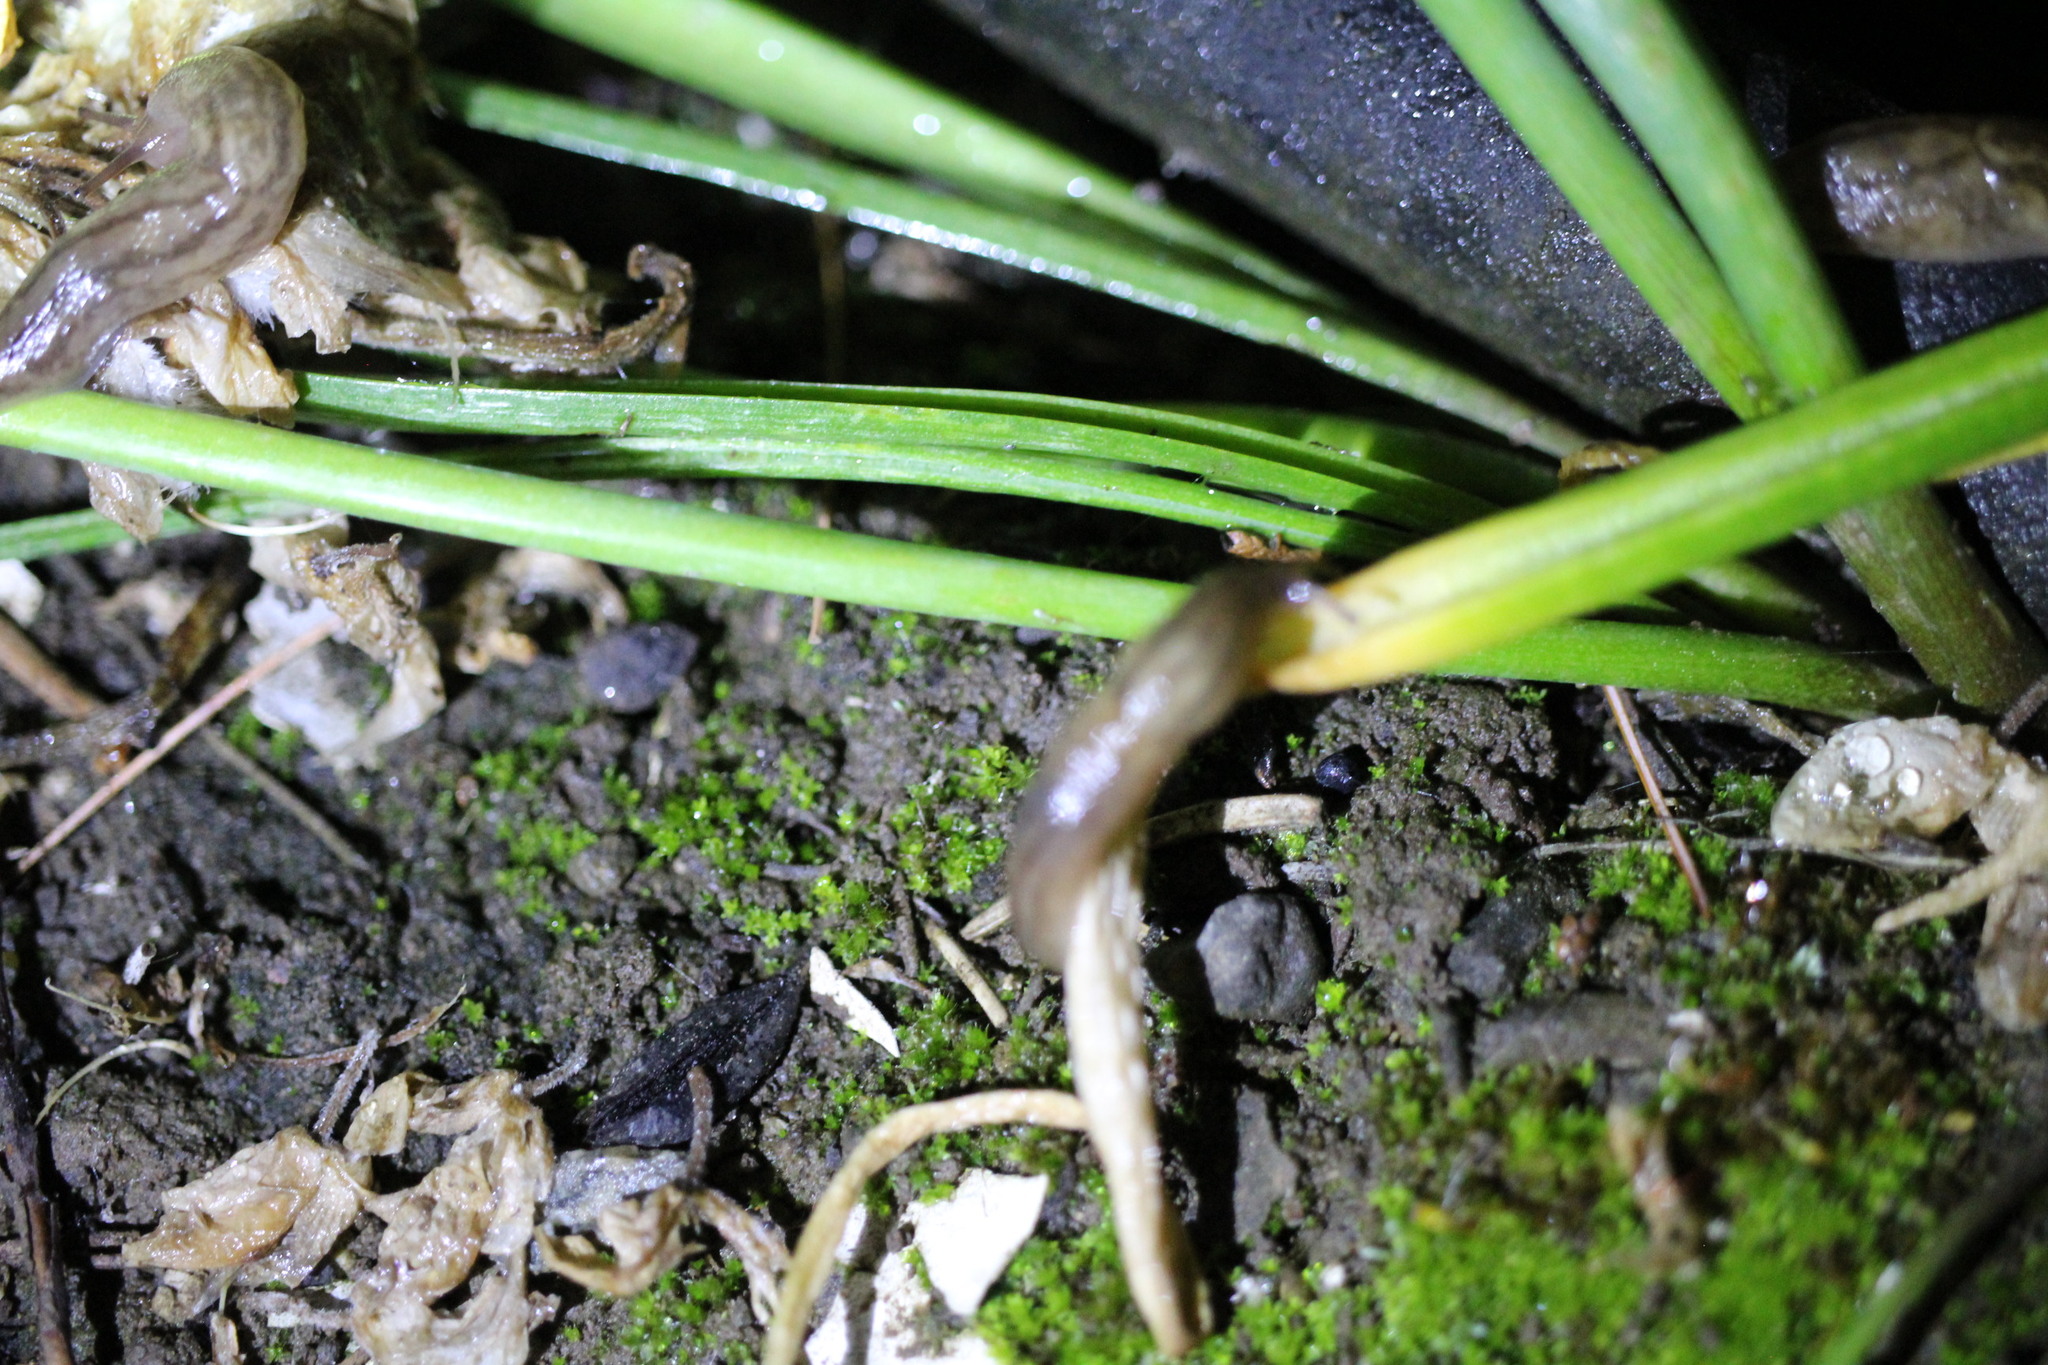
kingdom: Animalia
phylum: Mollusca
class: Gastropoda
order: Stylommatophora
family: Limacidae
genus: Ambigolimax
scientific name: Ambigolimax
